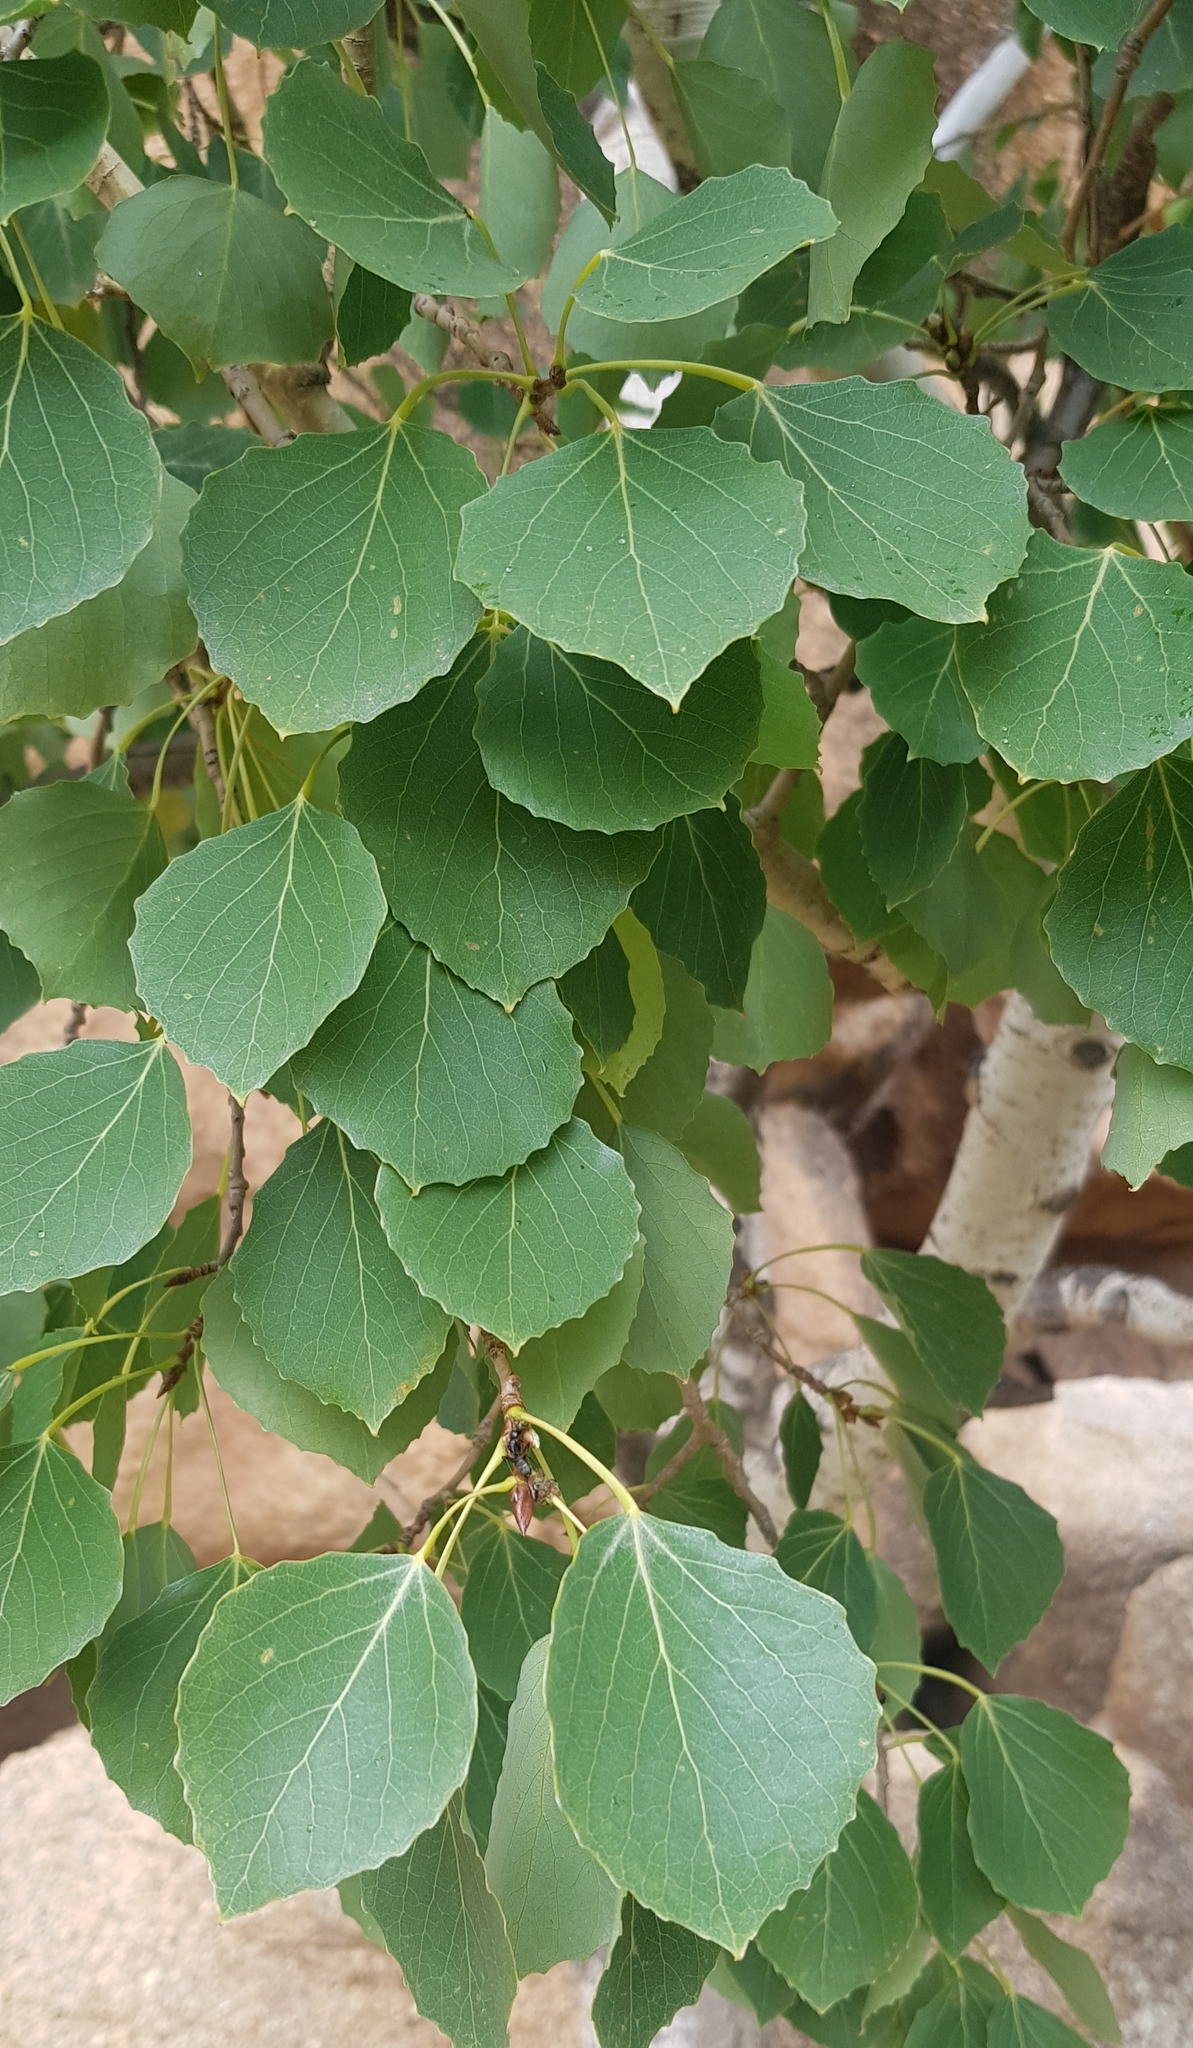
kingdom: Plantae
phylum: Tracheophyta
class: Magnoliopsida
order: Malpighiales
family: Salicaceae
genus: Populus
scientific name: Populus tremula
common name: European aspen
